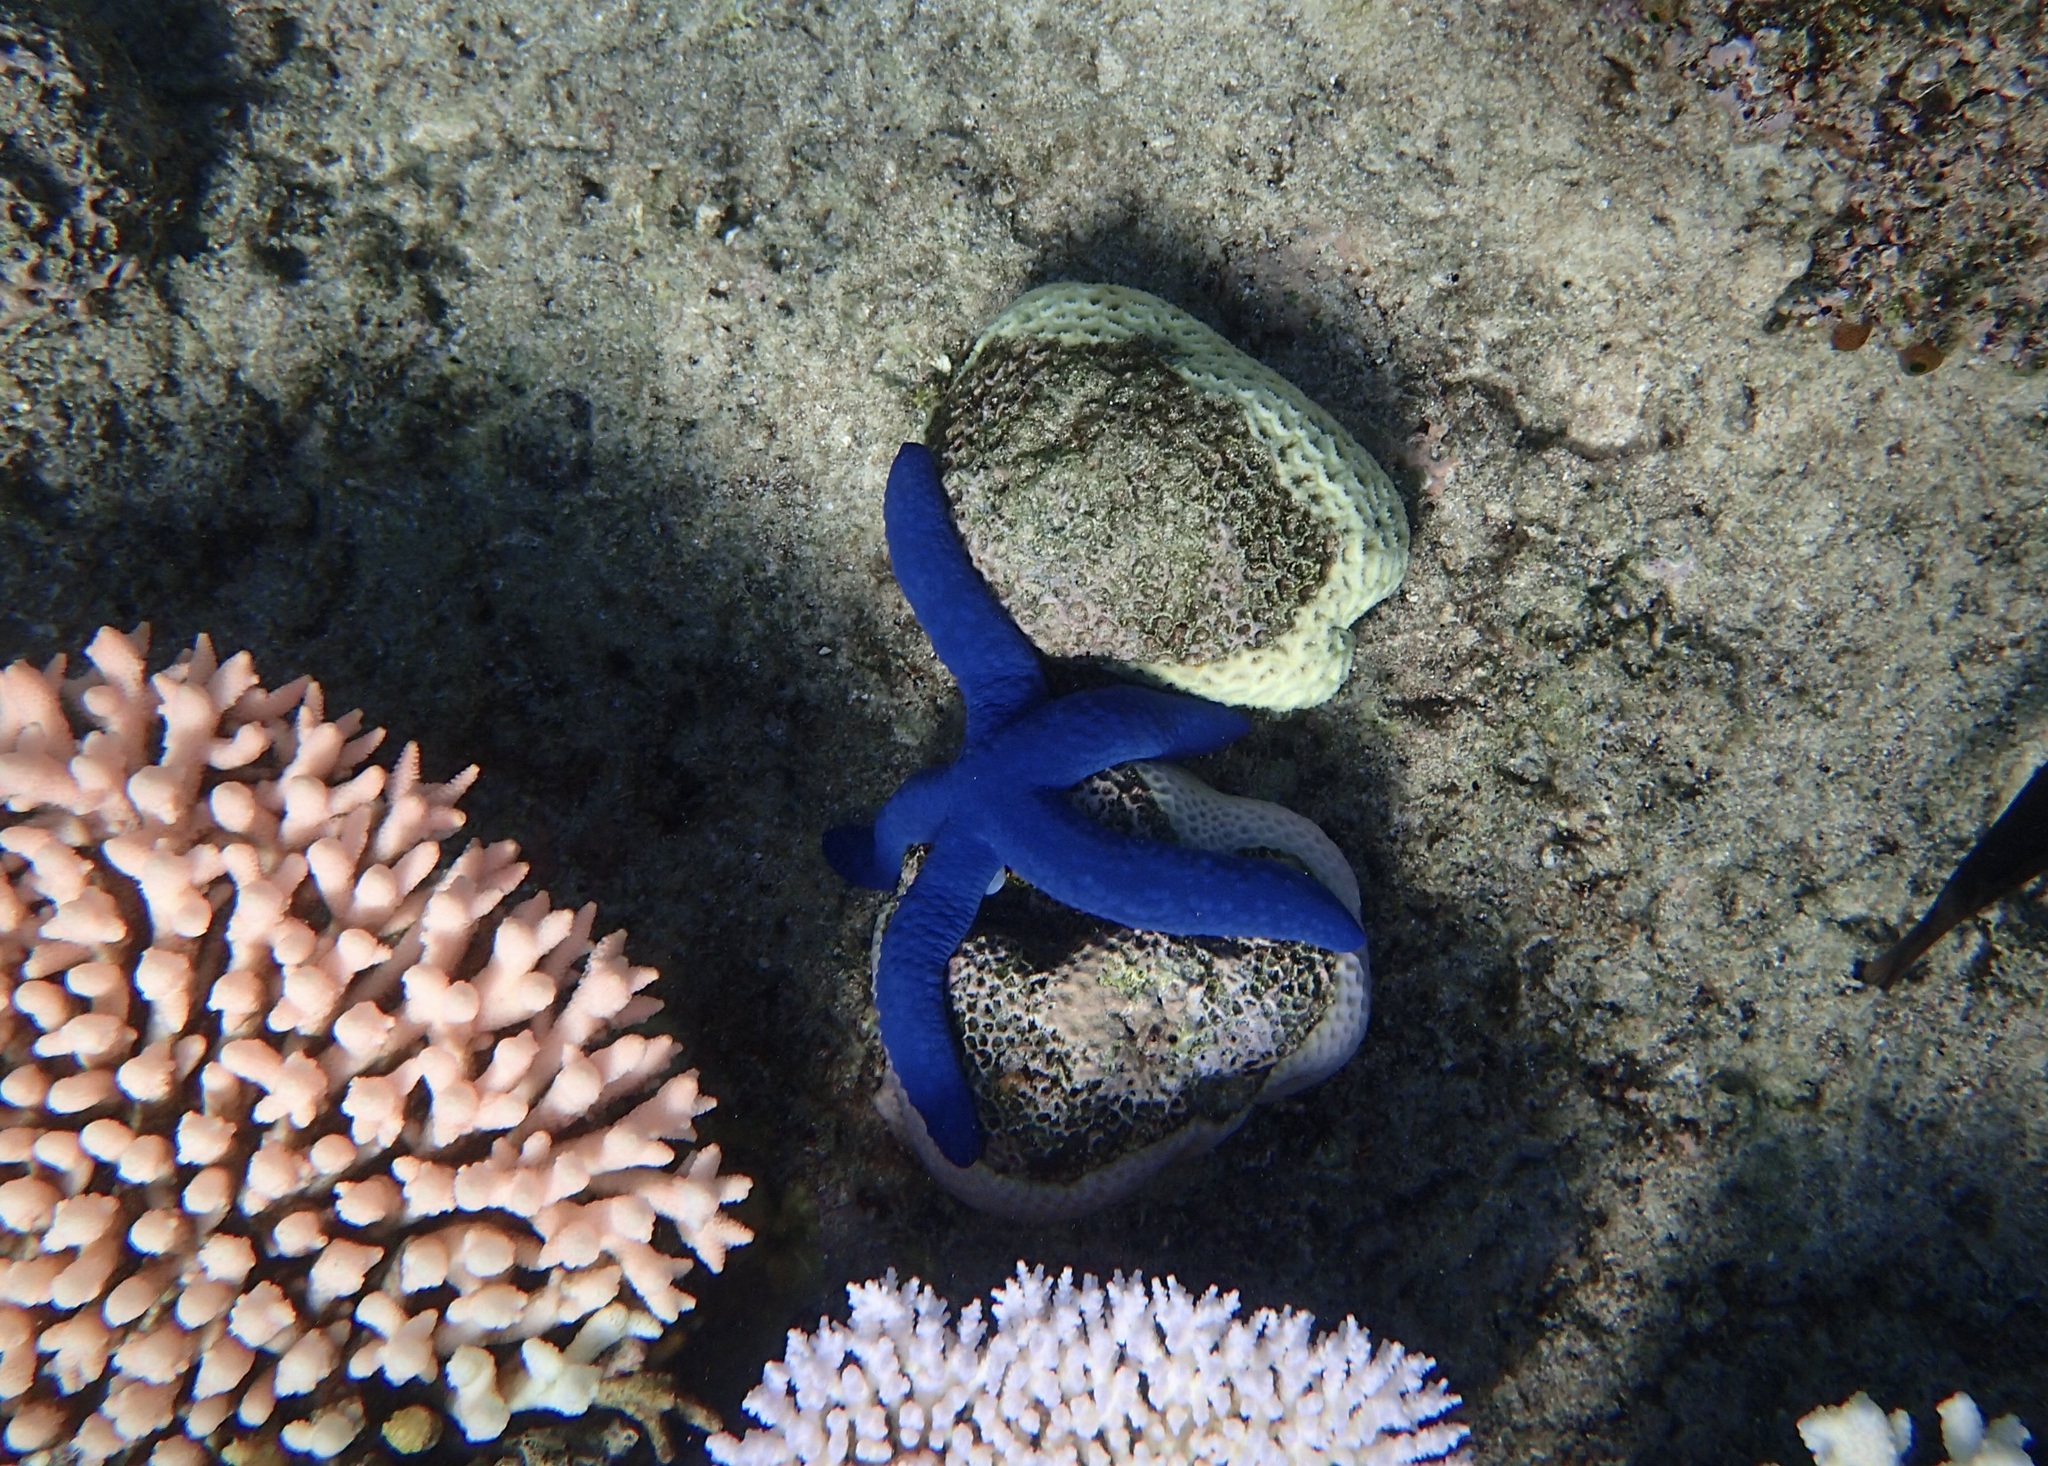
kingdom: Animalia
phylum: Echinodermata
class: Asteroidea
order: Valvatida
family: Ophidiasteridae
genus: Linckia
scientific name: Linckia laevigata
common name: Azure sea star
